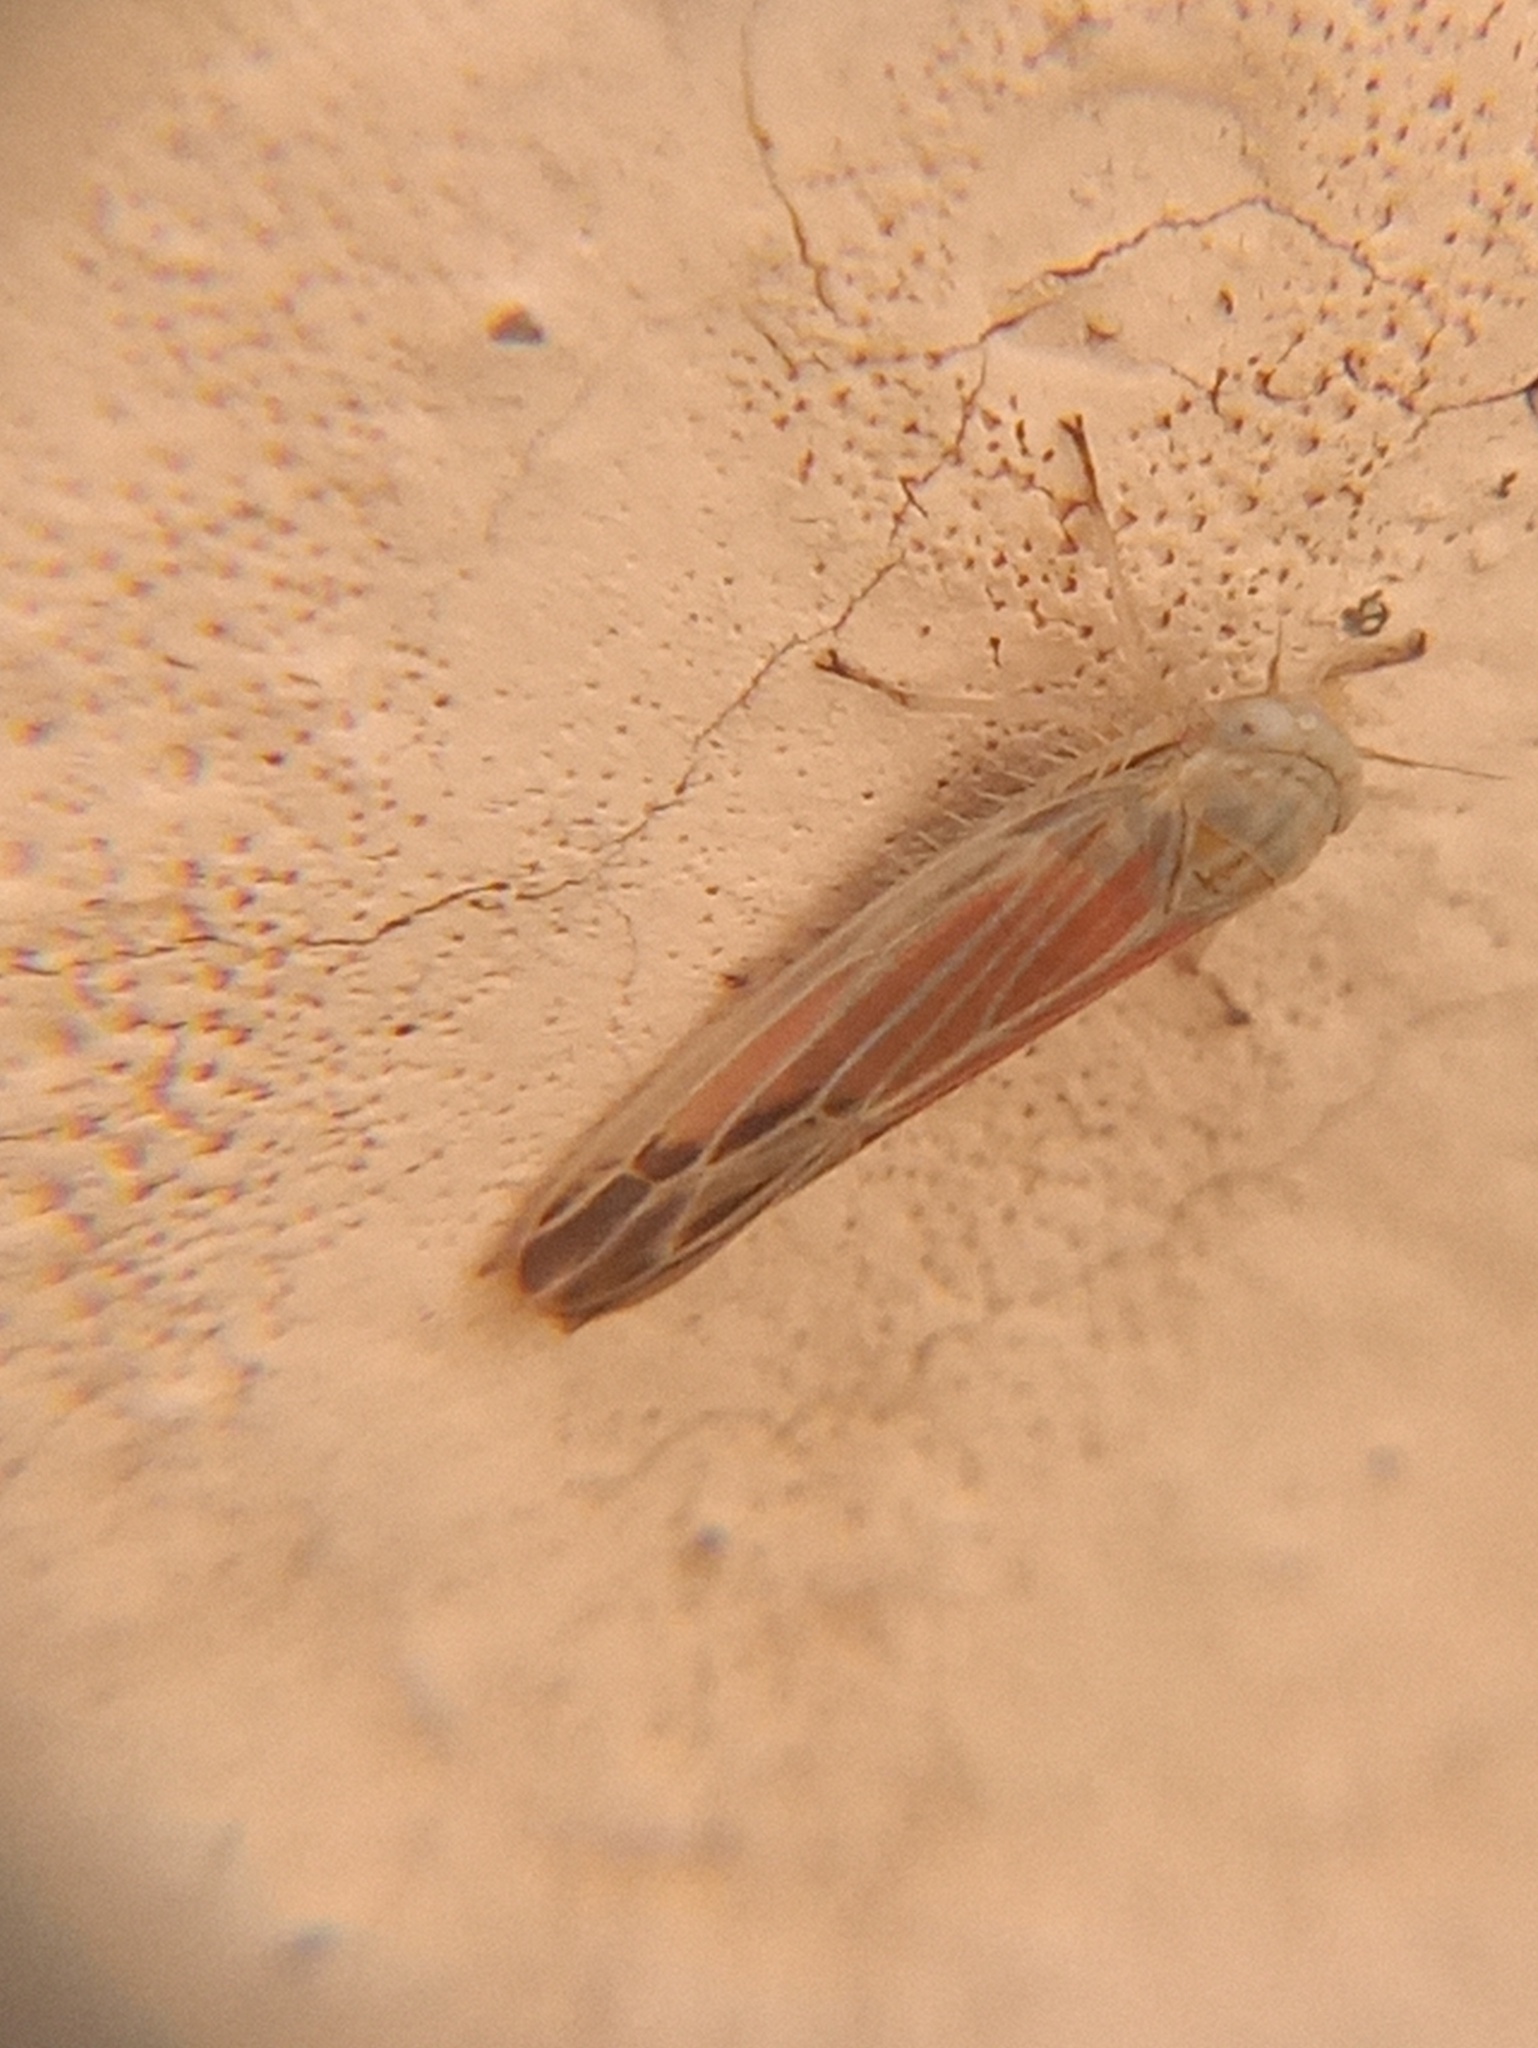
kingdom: Animalia
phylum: Arthropoda
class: Insecta
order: Hemiptera
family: Cicadellidae
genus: Balclutha
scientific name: Balclutha rubrostriata
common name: Red-streaked leafhopper
